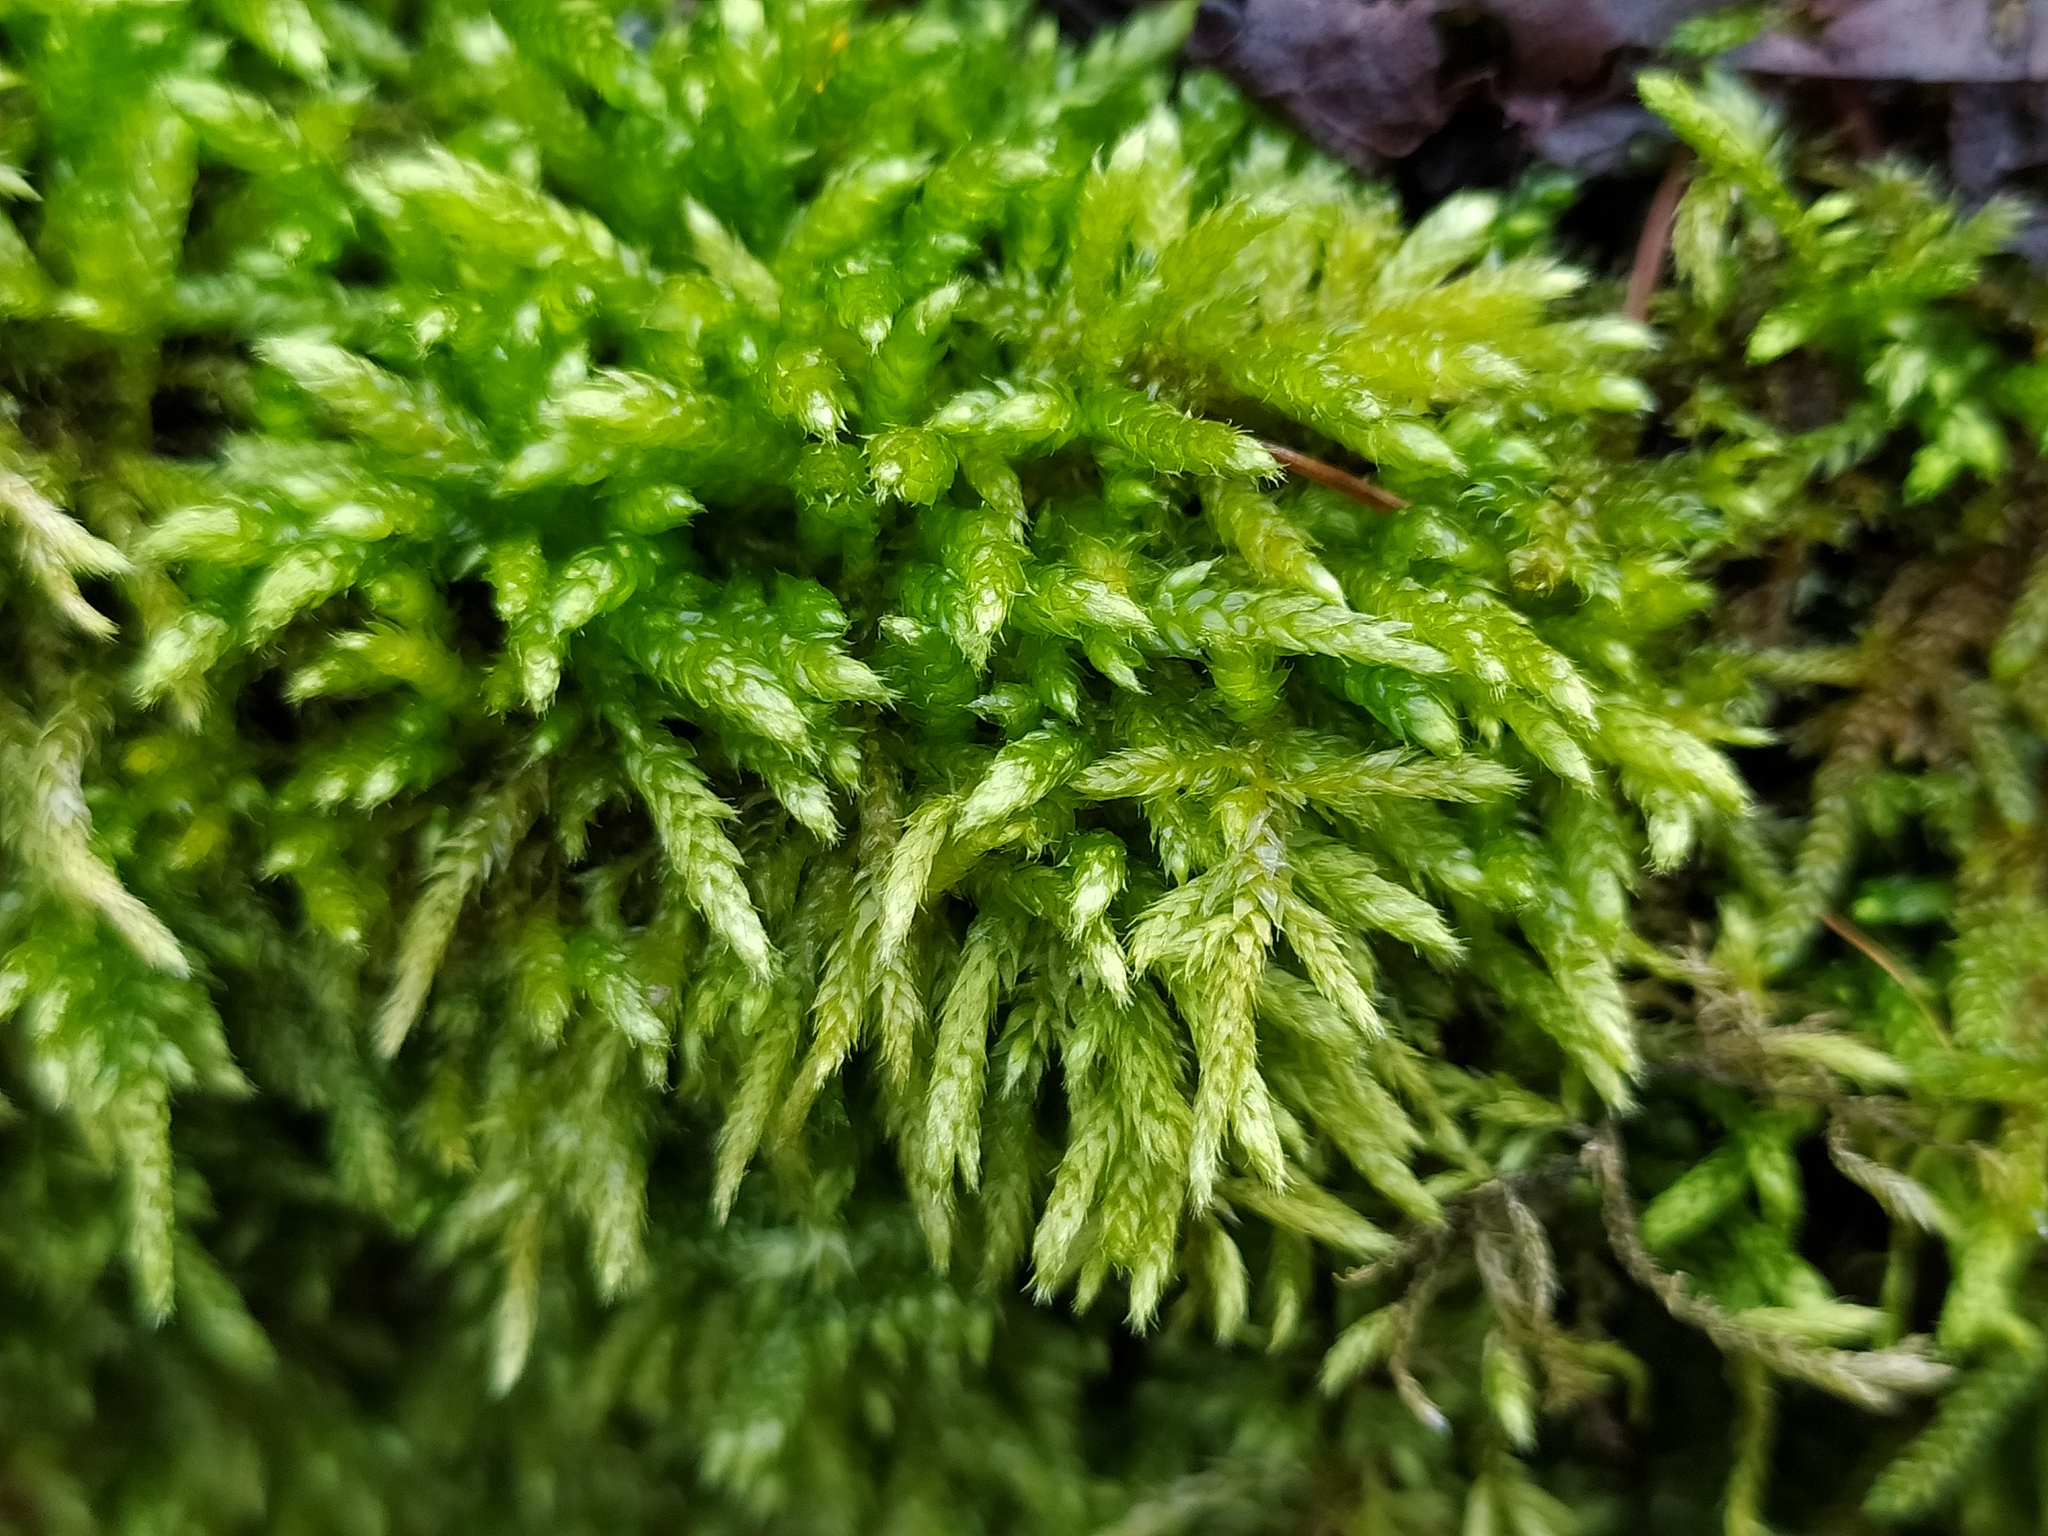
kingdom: Plantae
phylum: Bryophyta
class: Bryopsida
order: Hypnales
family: Brachytheciaceae
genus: Cirriphyllum
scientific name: Cirriphyllum crassinervium
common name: Beech feather-moss
